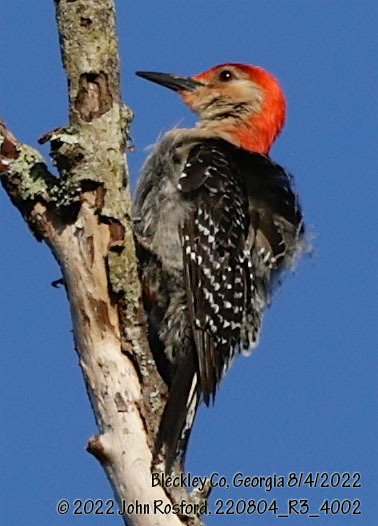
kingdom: Animalia
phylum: Chordata
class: Aves
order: Piciformes
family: Picidae
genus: Melanerpes
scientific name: Melanerpes carolinus
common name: Red-bellied woodpecker
